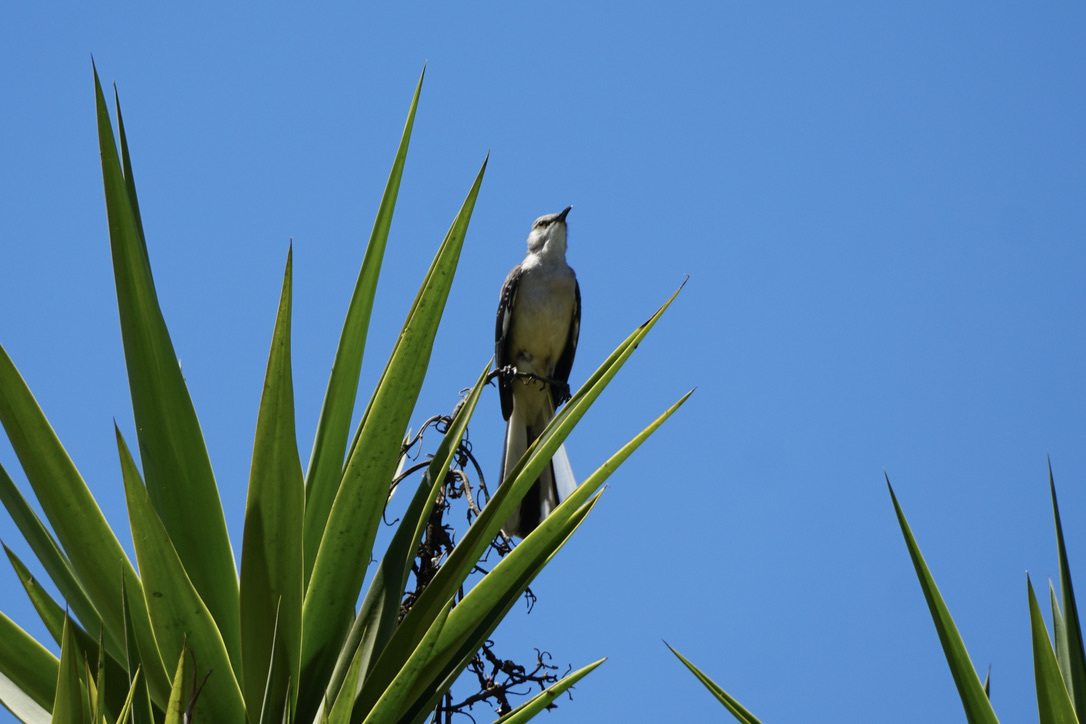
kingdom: Animalia
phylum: Chordata
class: Aves
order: Passeriformes
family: Mimidae
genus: Mimus
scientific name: Mimus polyglottos
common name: Northern mockingbird
